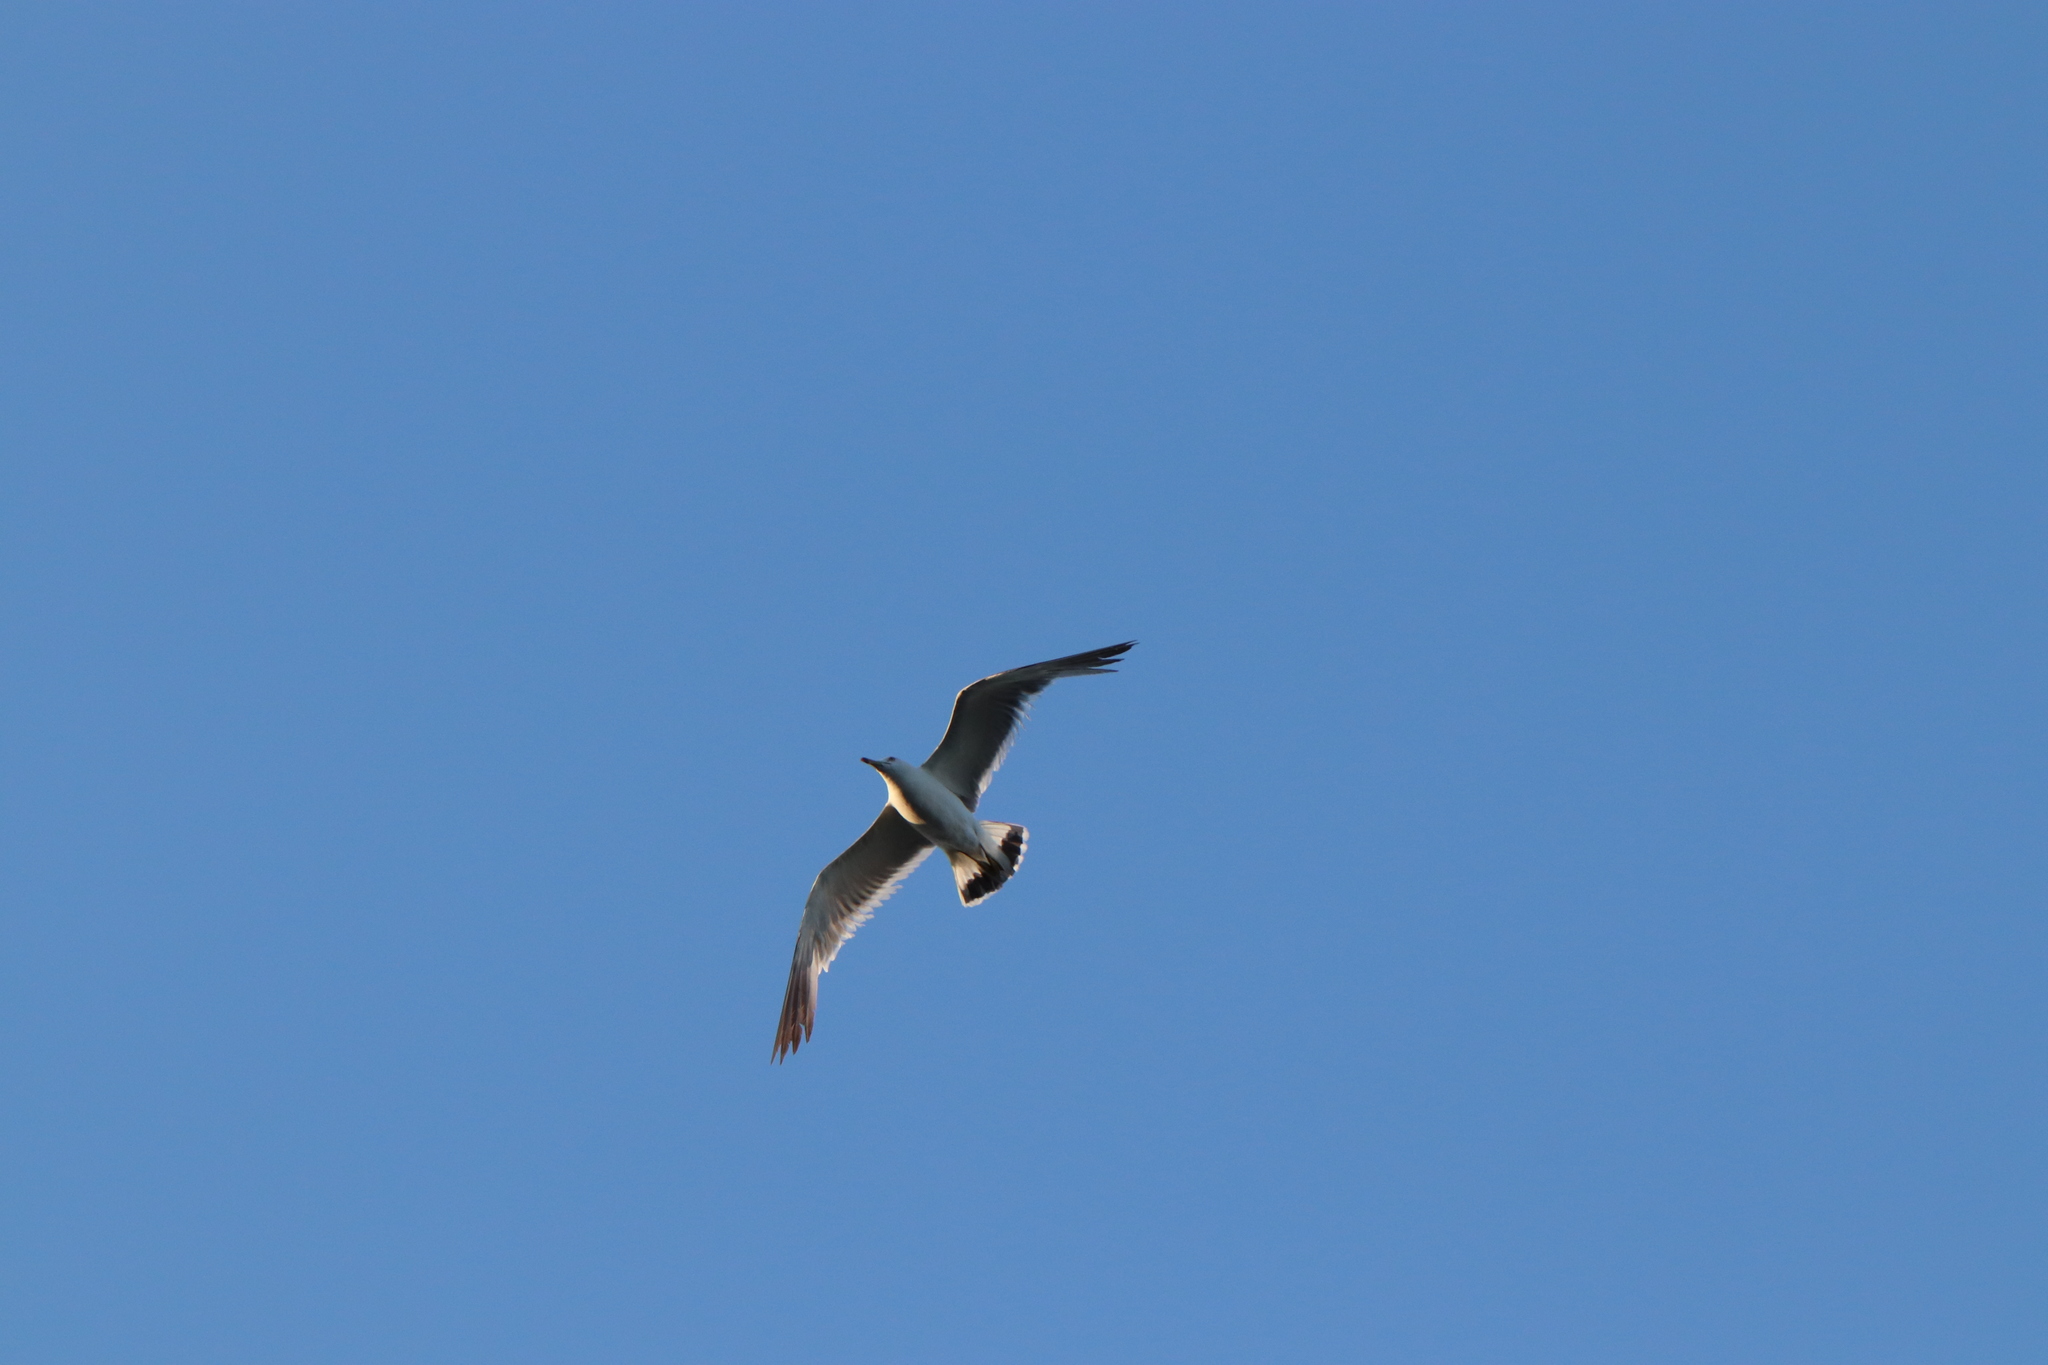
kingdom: Animalia
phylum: Chordata
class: Aves
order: Charadriiformes
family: Laridae
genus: Larus
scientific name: Larus crassirostris
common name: Black-tailed gull
